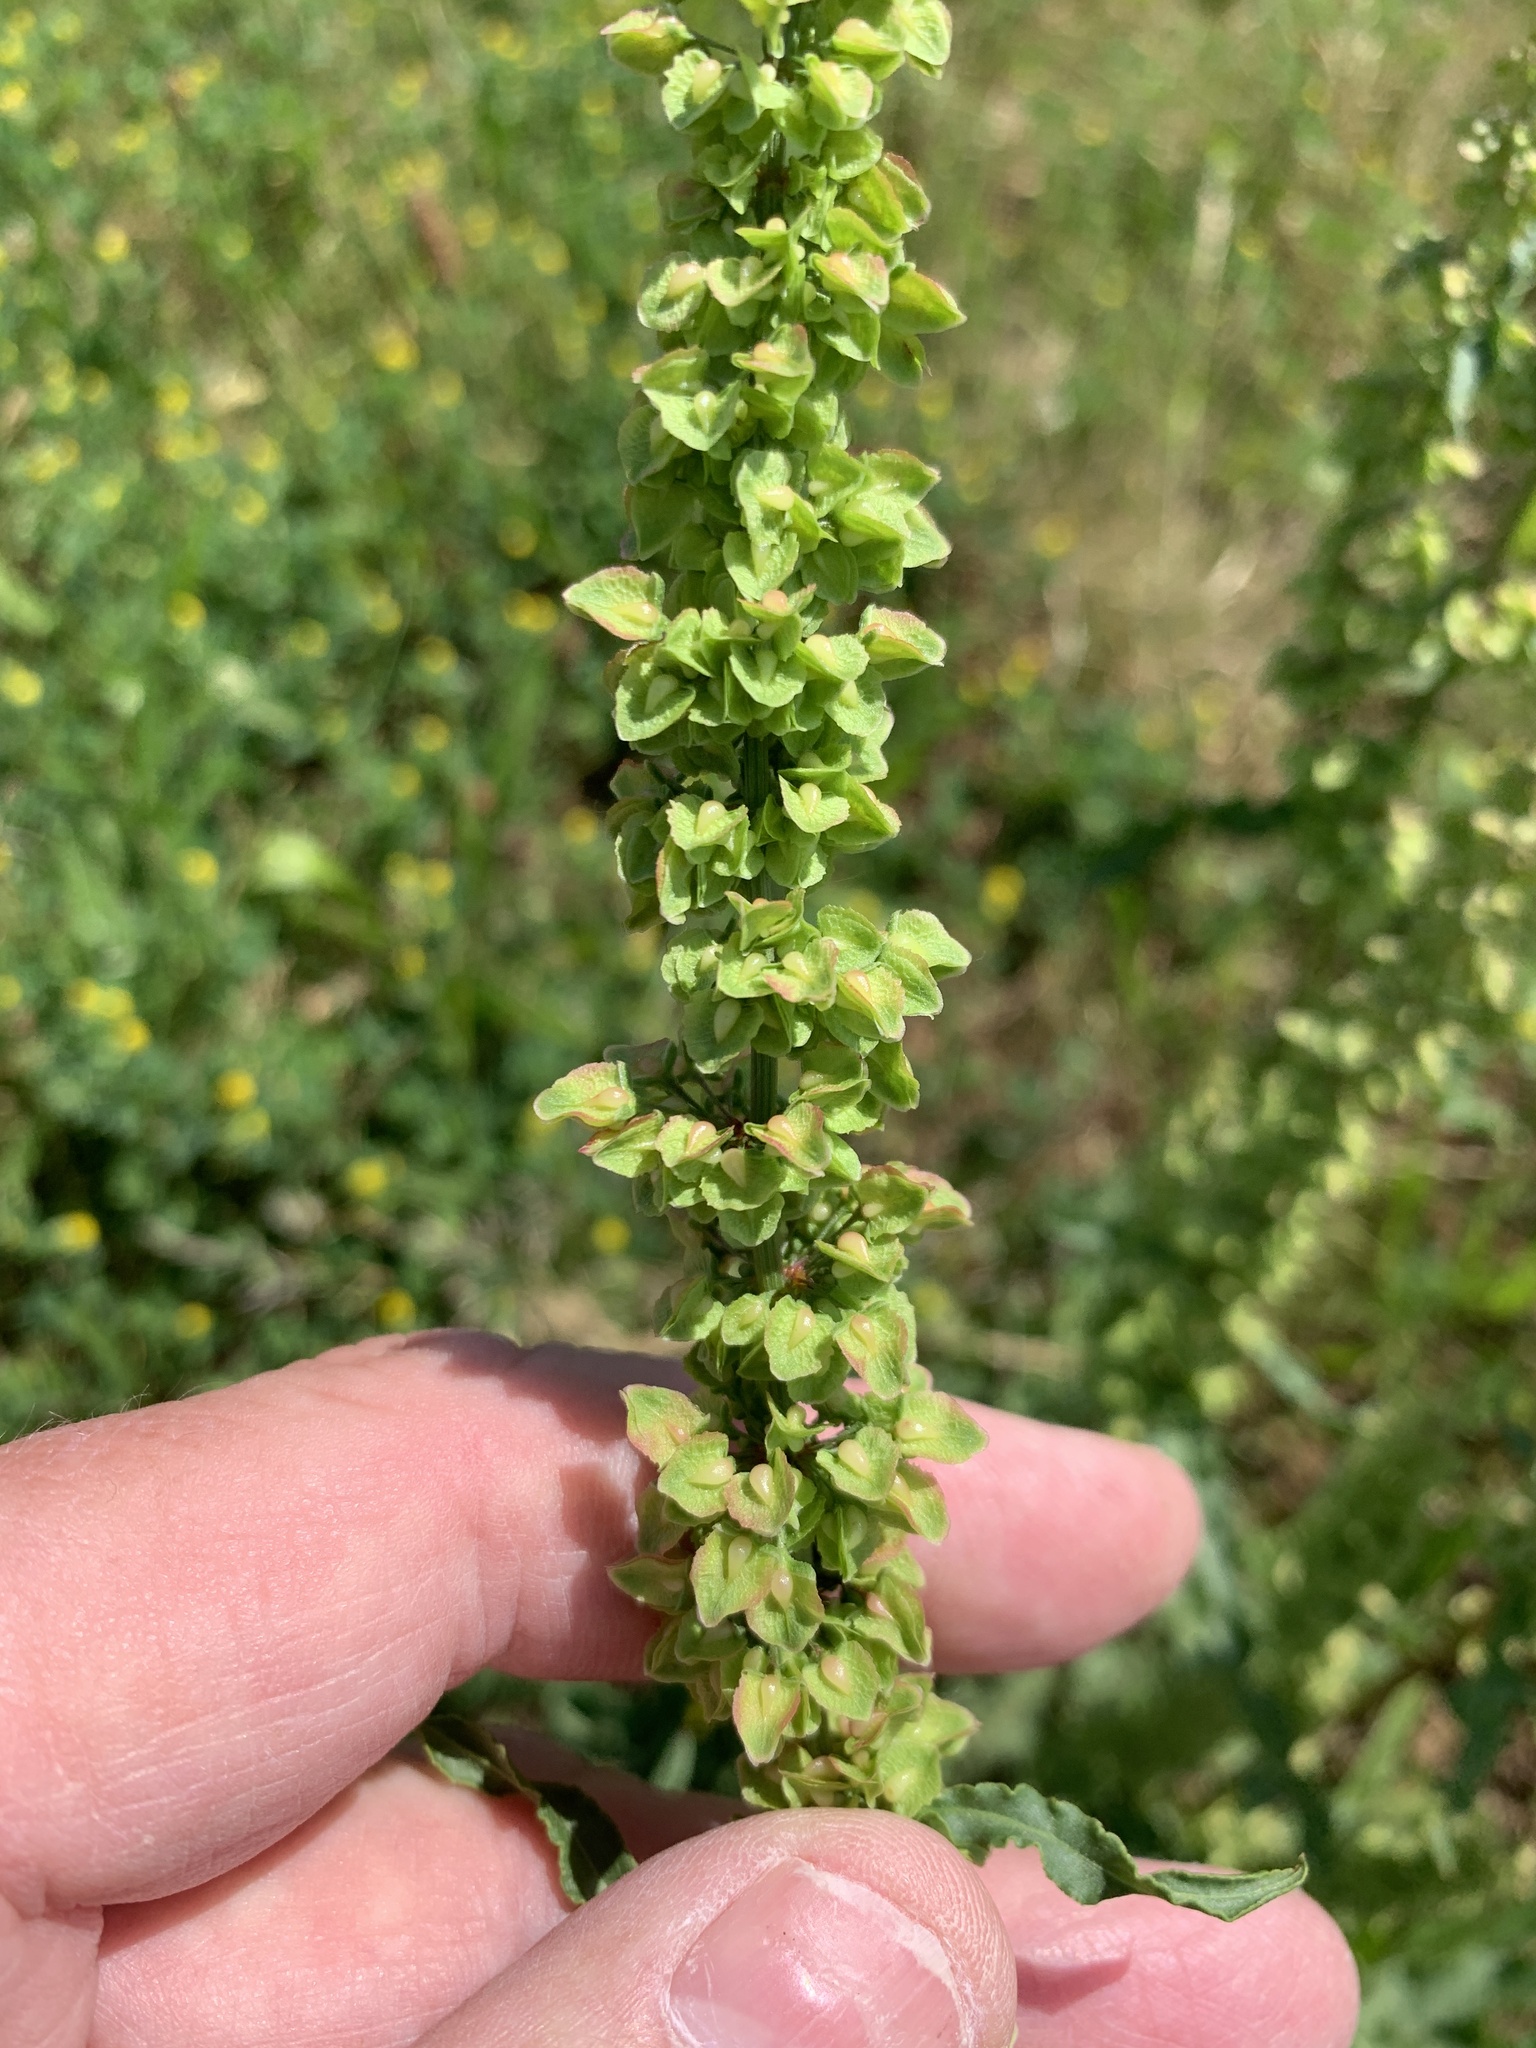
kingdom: Plantae
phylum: Tracheophyta
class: Magnoliopsida
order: Caryophyllales
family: Polygonaceae
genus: Rumex
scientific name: Rumex crispus
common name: Curled dock
